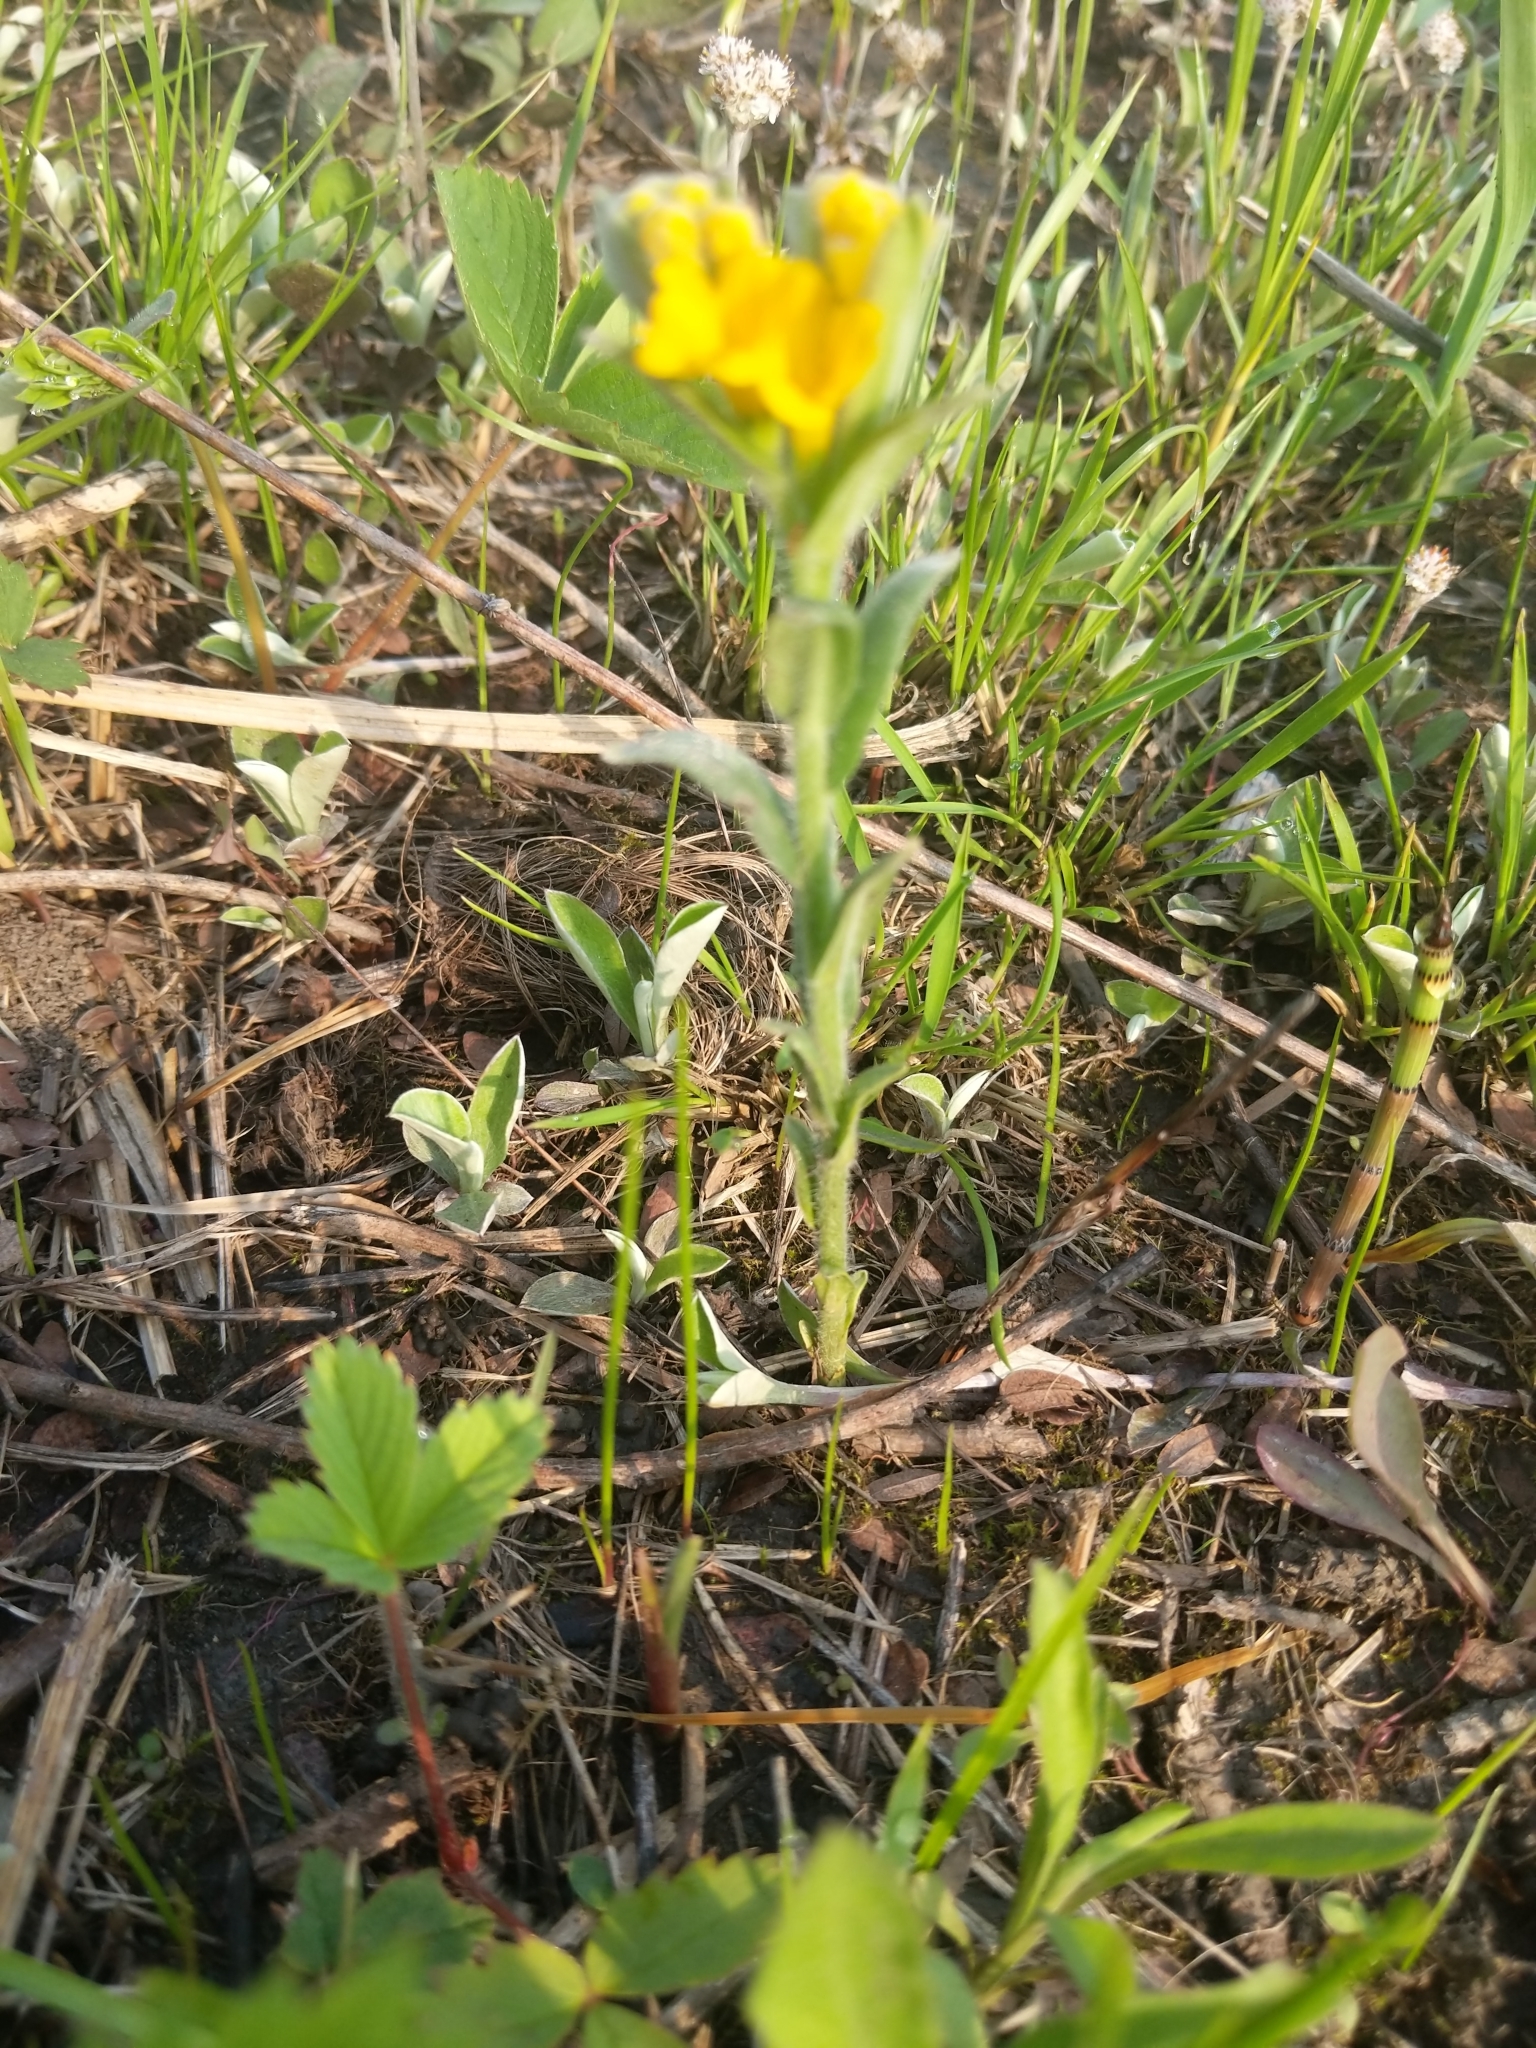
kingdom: Plantae
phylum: Tracheophyta
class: Magnoliopsida
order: Boraginales
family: Boraginaceae
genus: Lithospermum
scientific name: Lithospermum canescens
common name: Hoary puccoon
